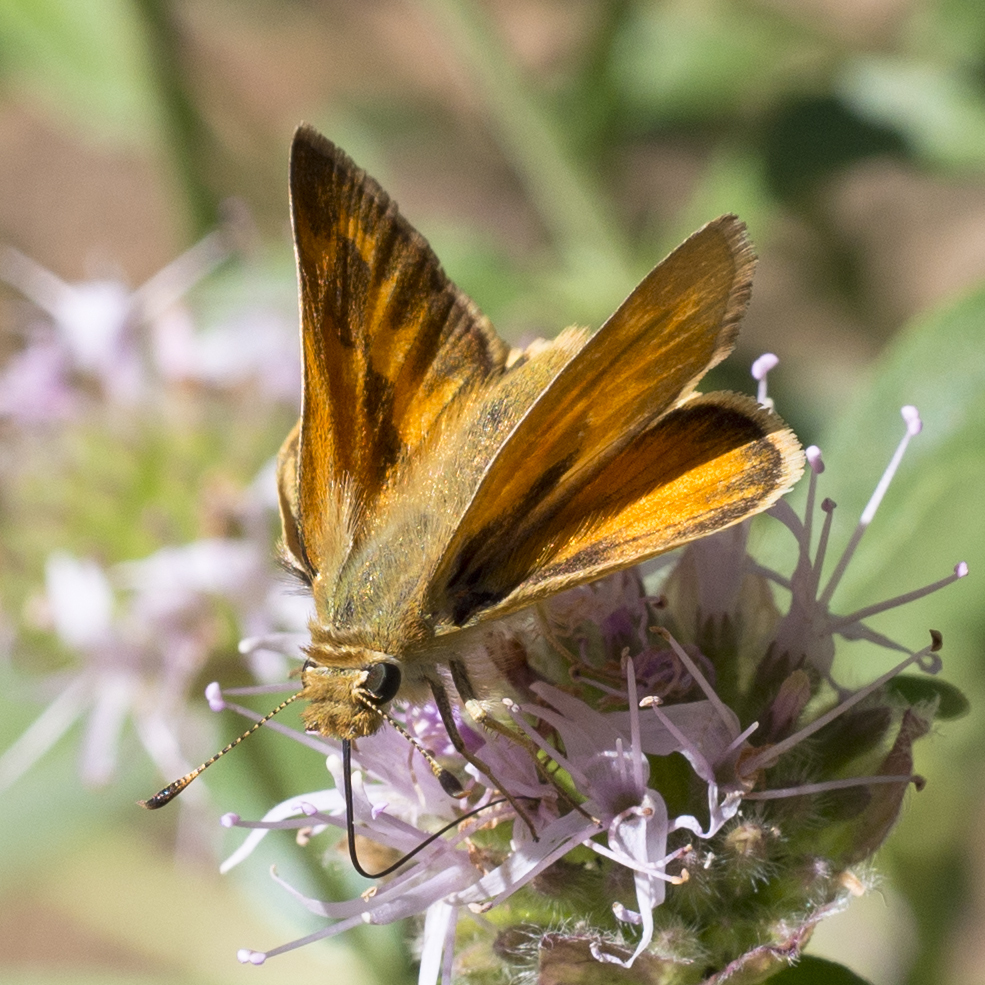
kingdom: Animalia
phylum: Arthropoda
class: Insecta
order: Lepidoptera
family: Hesperiidae
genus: Ochlodes
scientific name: Ochlodes sylvanoides
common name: Woodland skipper
